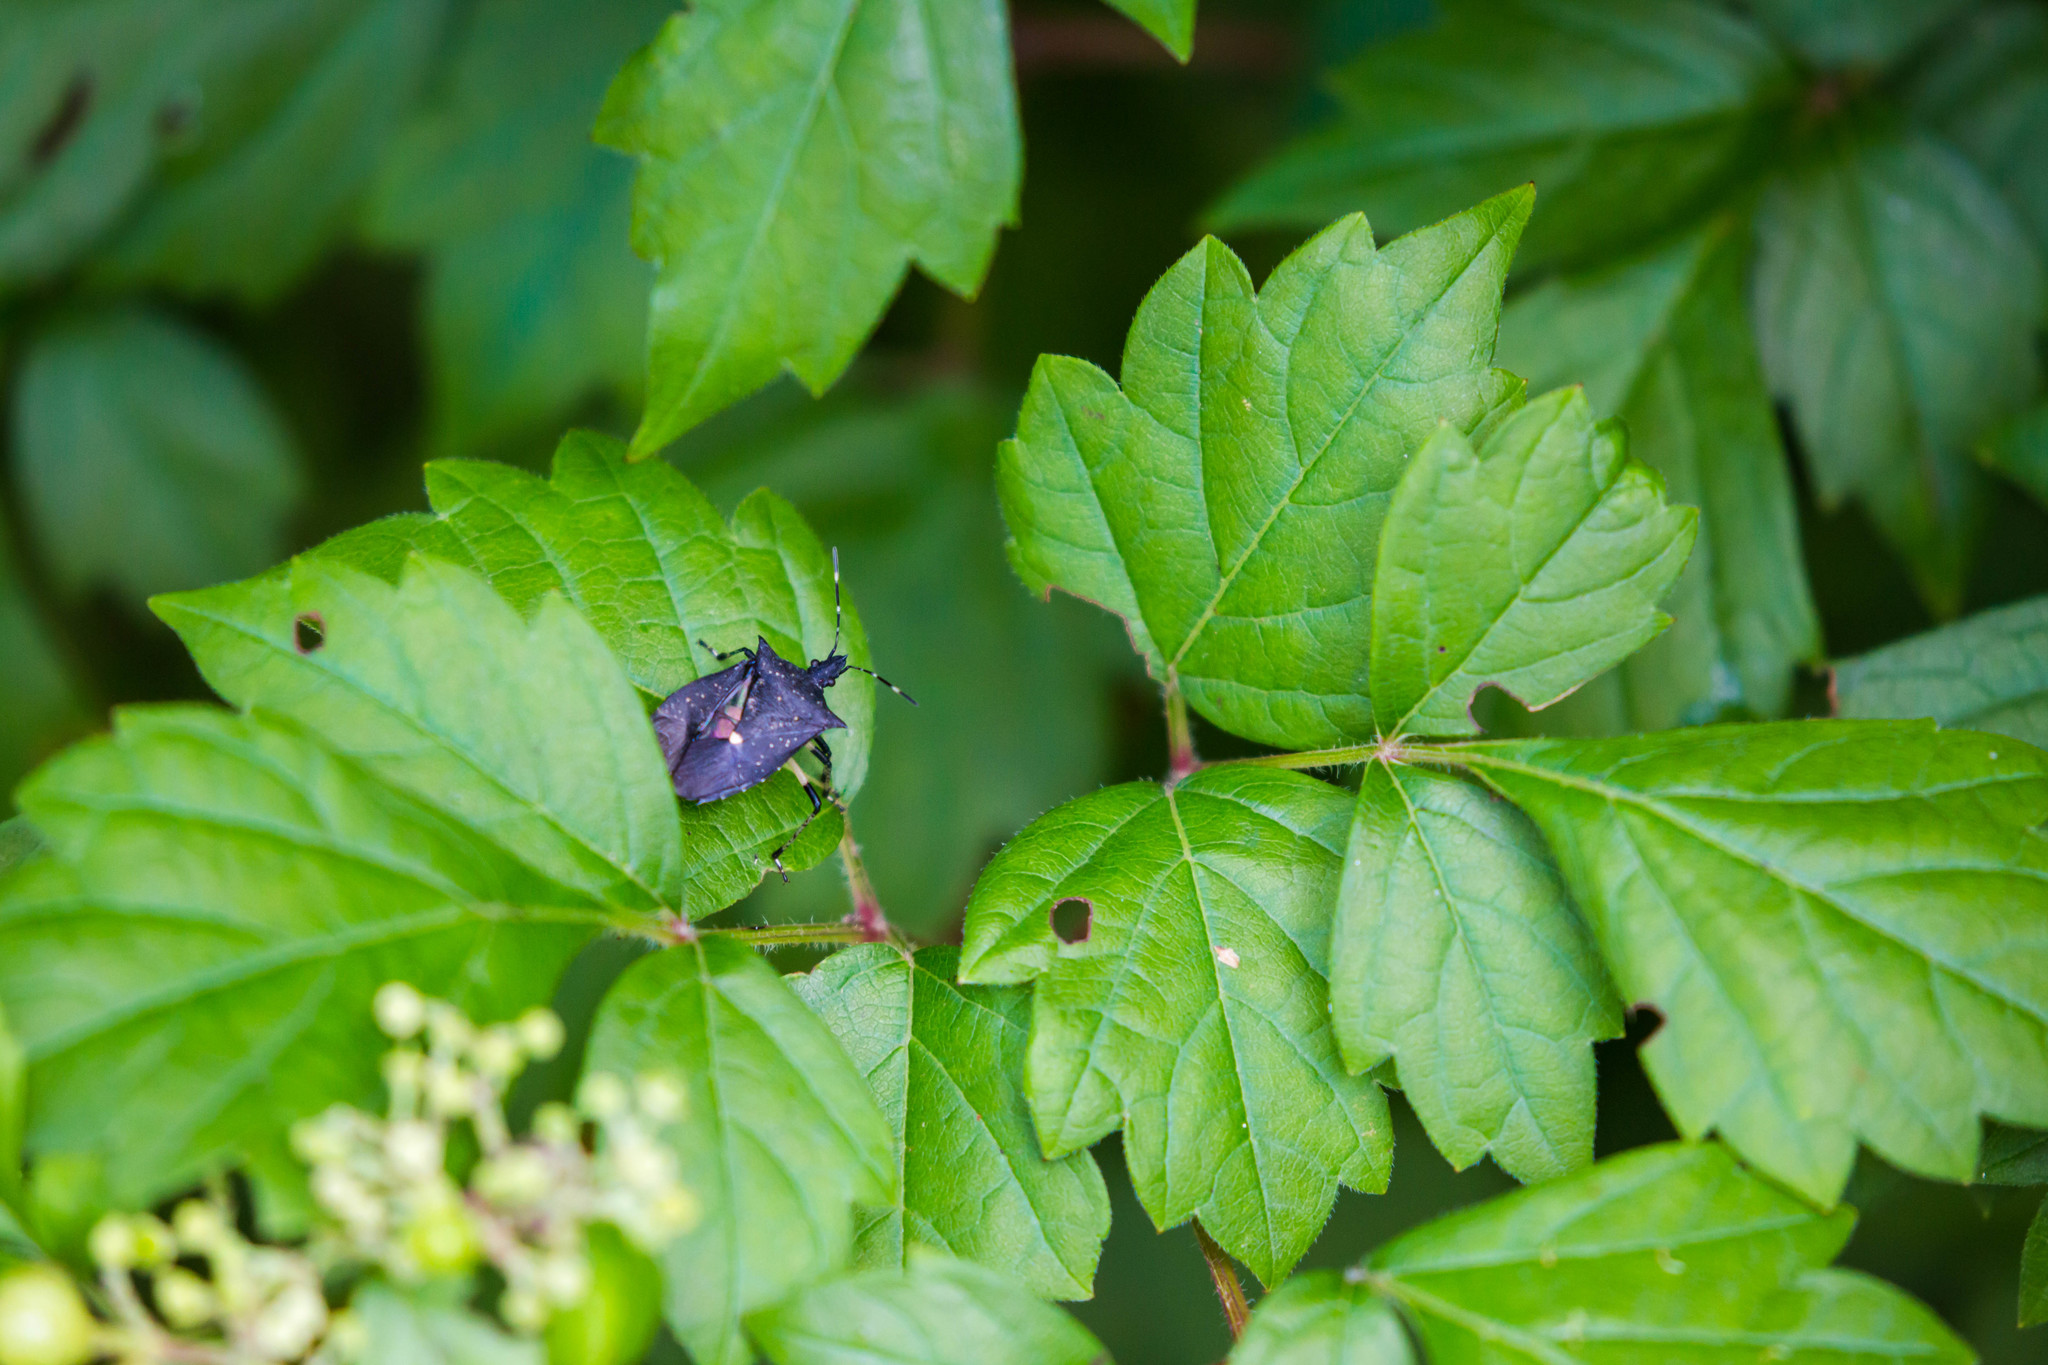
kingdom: Animalia
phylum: Arthropoda
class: Insecta
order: Hemiptera
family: Pentatomidae
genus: Proxys
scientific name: Proxys punctulatus
